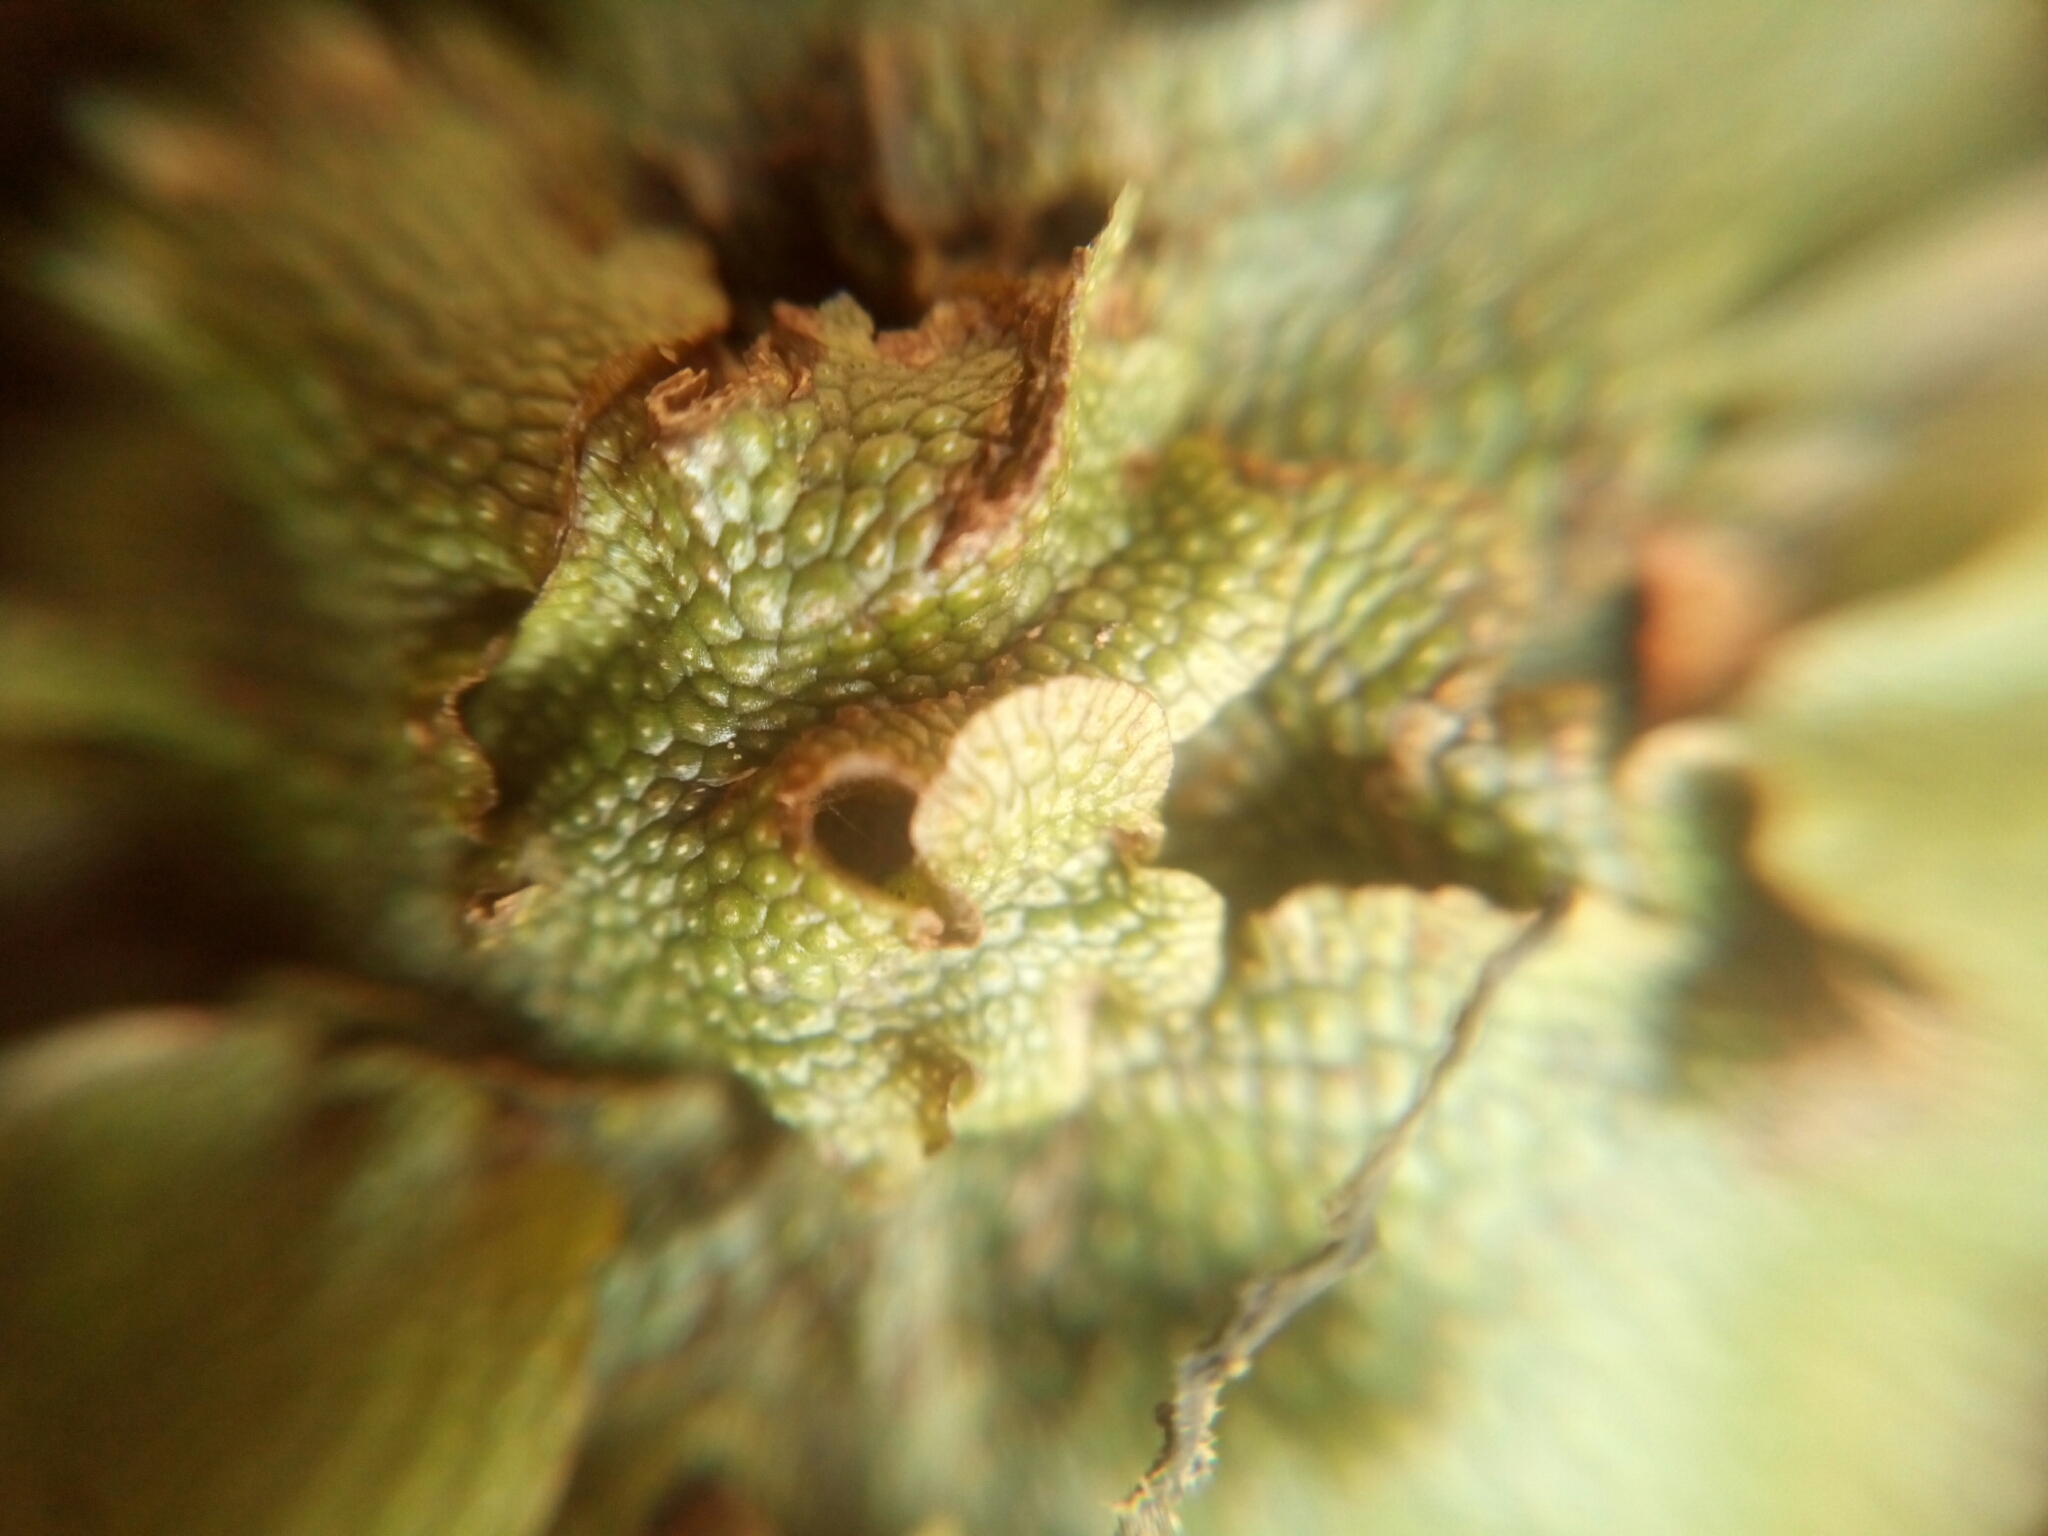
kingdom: Plantae
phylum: Marchantiophyta
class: Marchantiopsida
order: Marchantiales
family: Conocephalaceae
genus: Conocephalum
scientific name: Conocephalum salebrosum
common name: Cat-tongue liverwort
